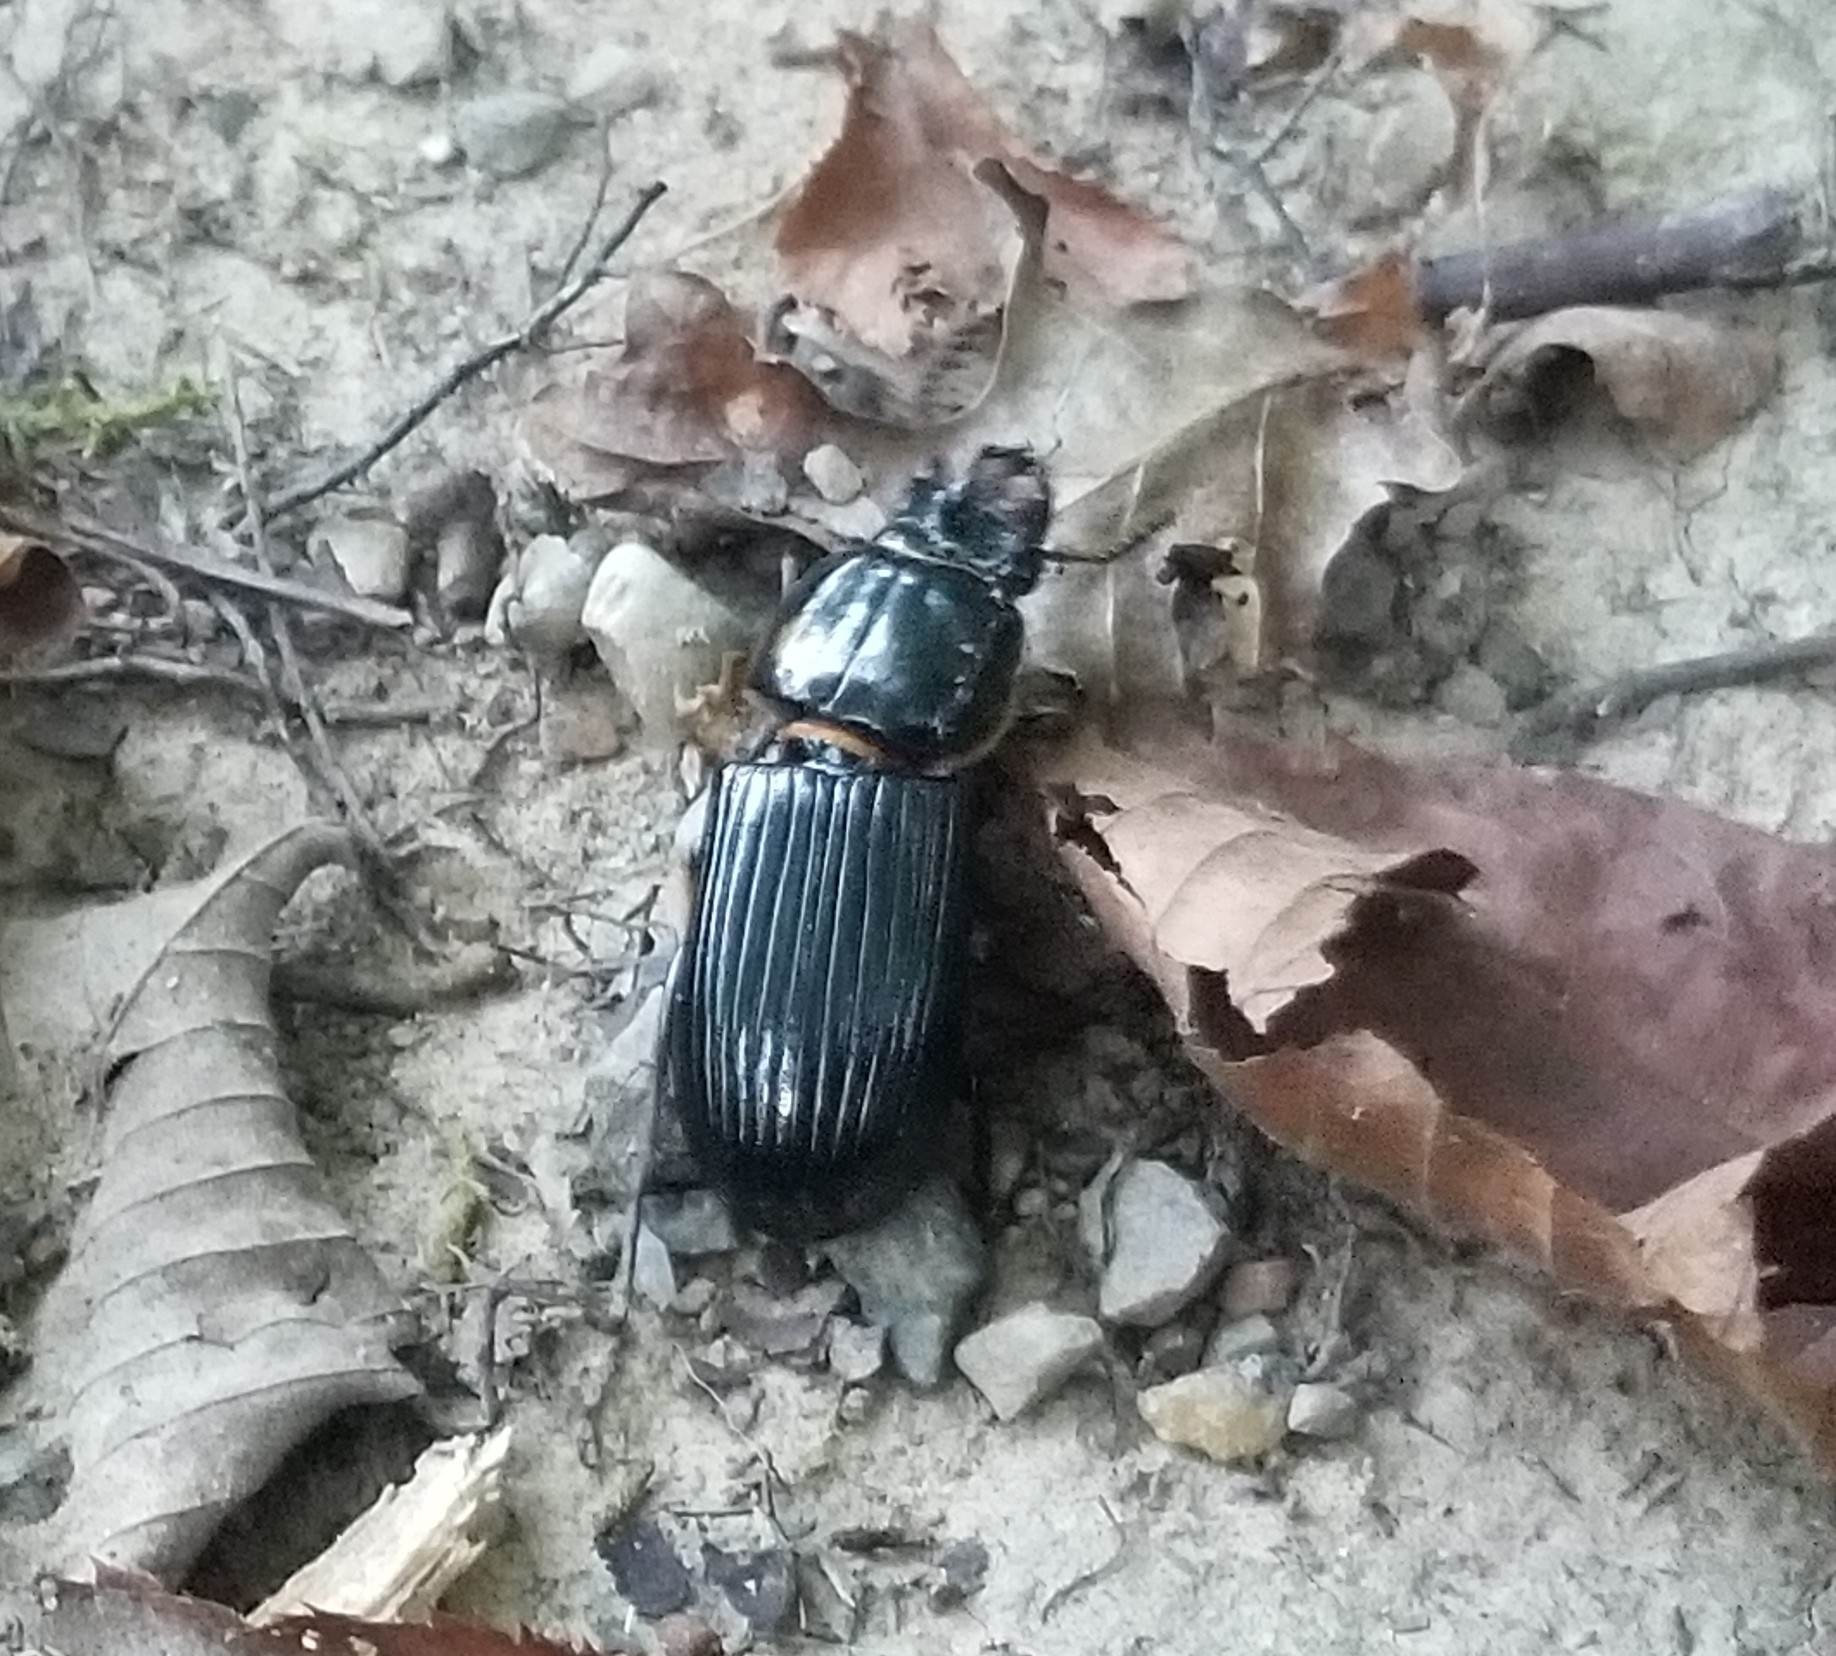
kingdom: Animalia
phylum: Arthropoda
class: Insecta
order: Coleoptera
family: Passalidae
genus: Odontotaenius
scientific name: Odontotaenius disjunctus
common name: Patent leather beetle
